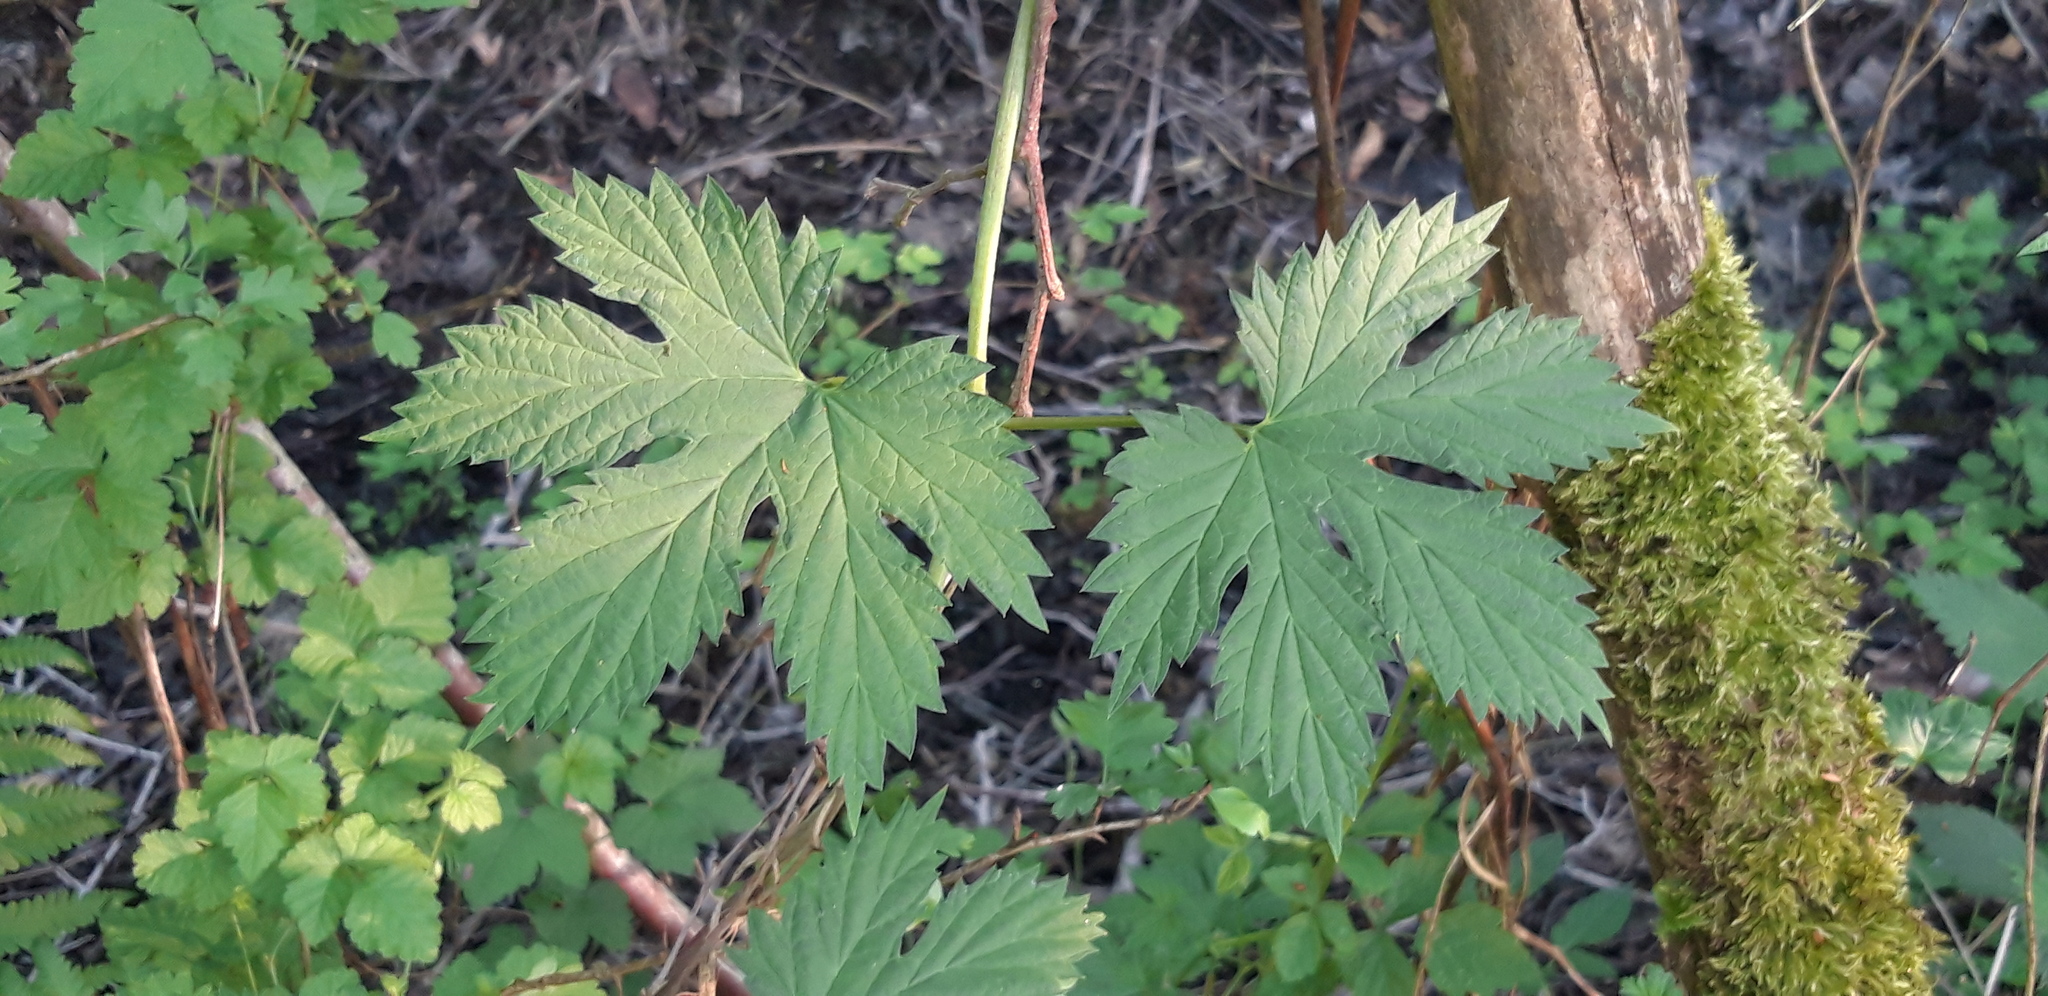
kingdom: Plantae
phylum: Tracheophyta
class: Magnoliopsida
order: Rosales
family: Cannabaceae
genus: Humulus
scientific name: Humulus lupulus
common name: Hop
